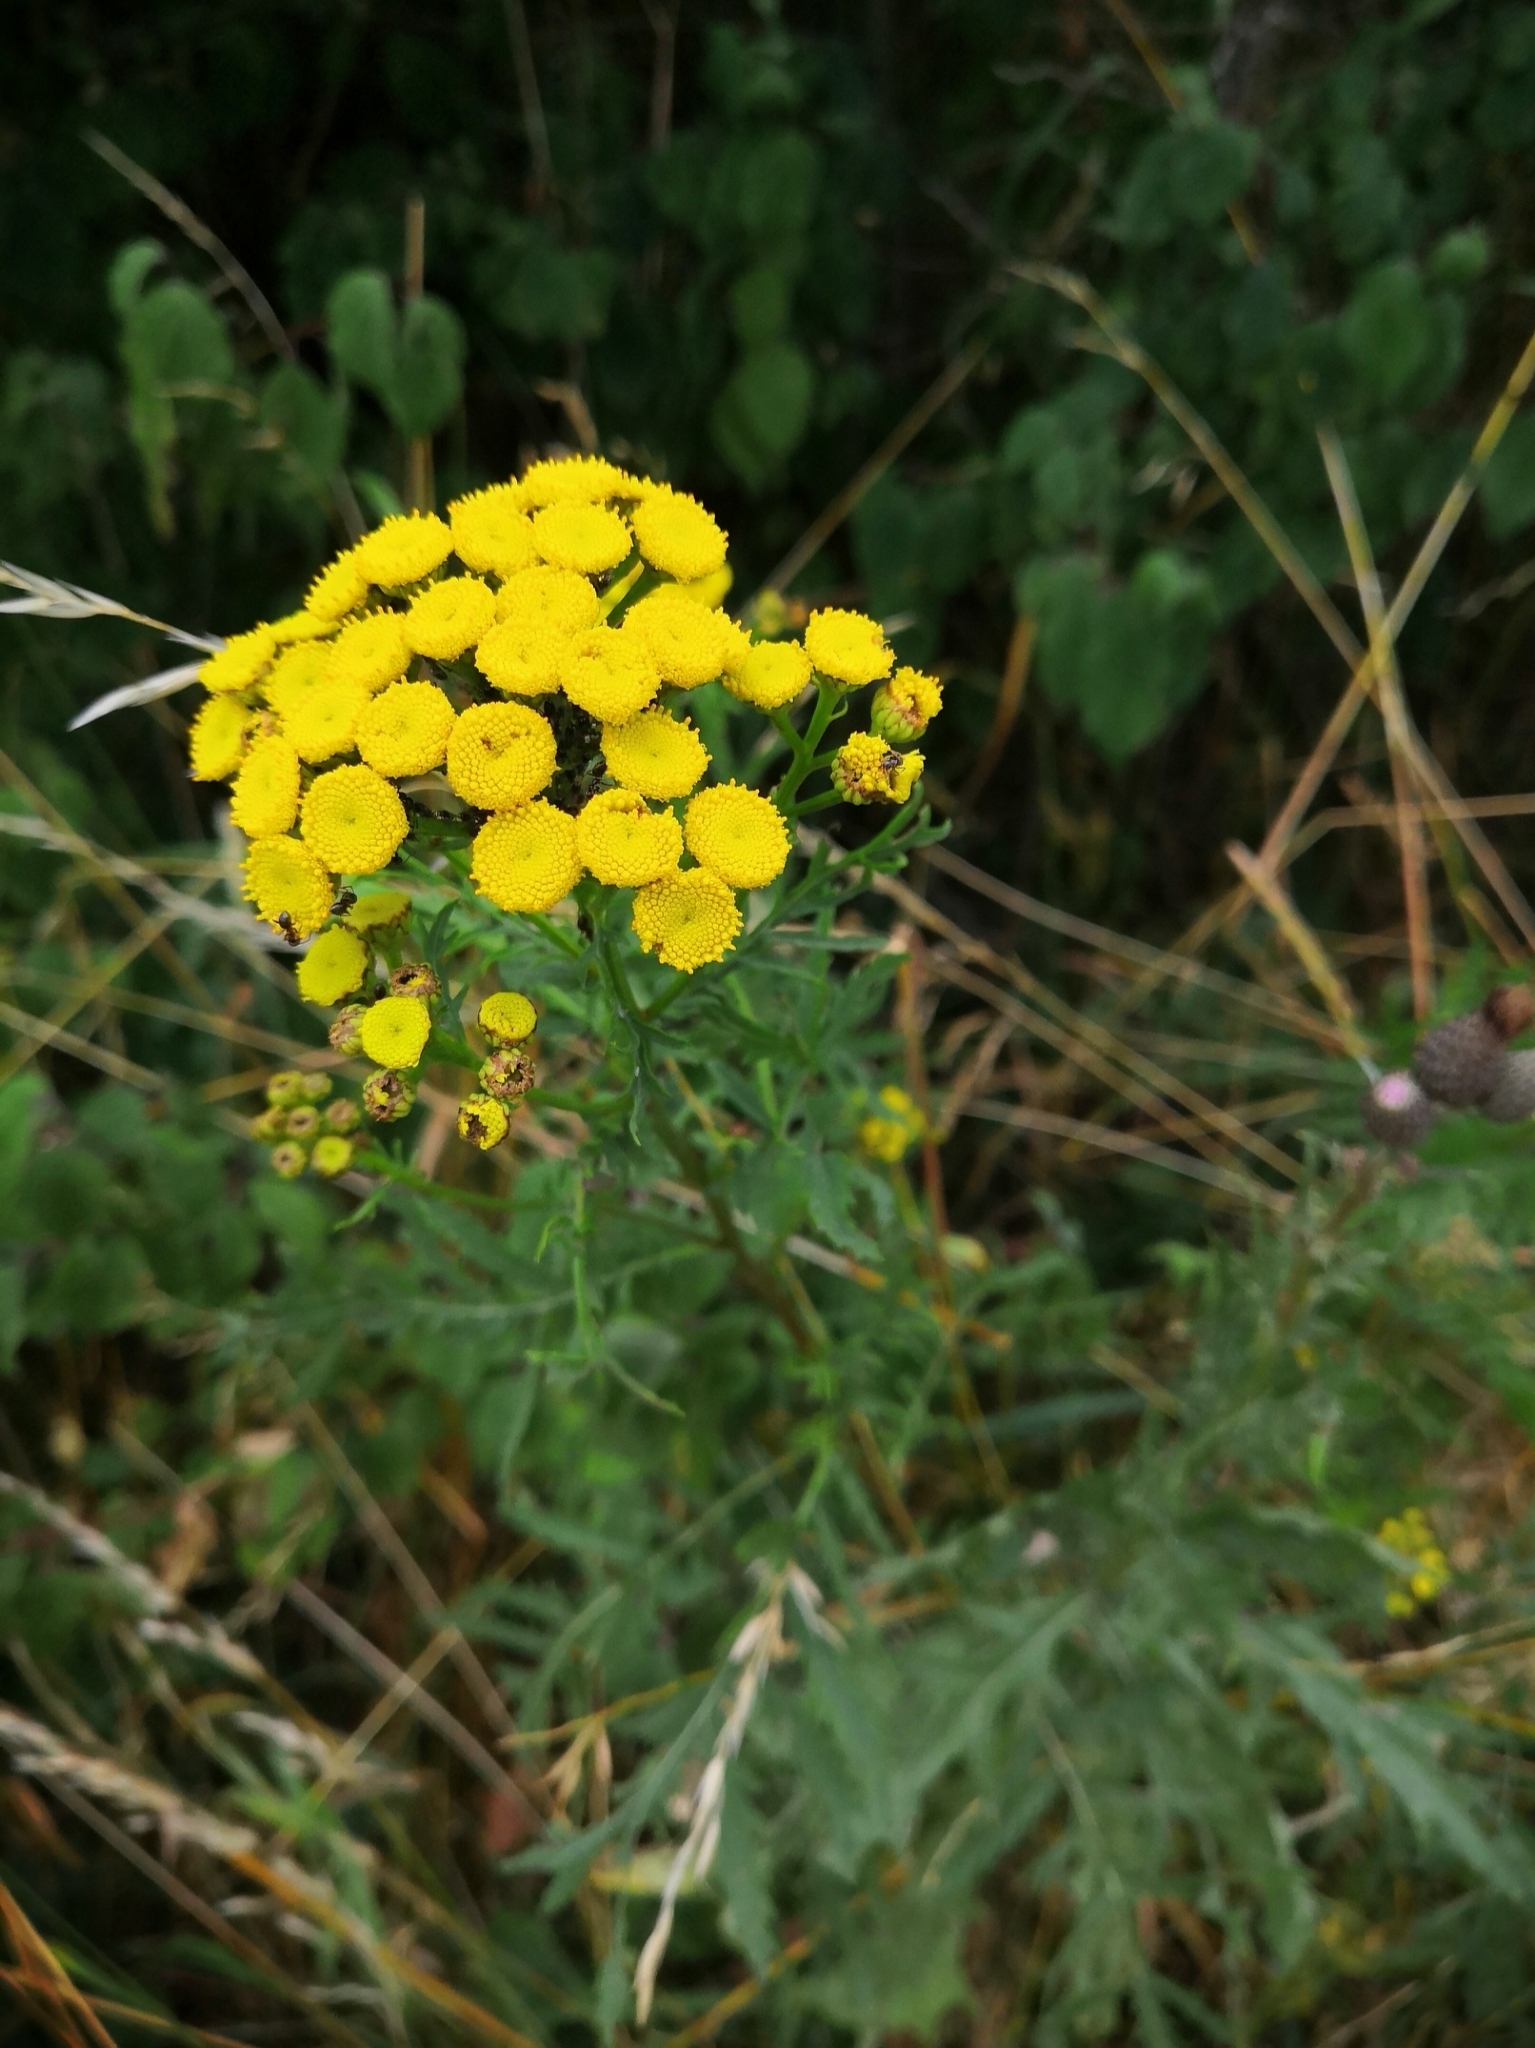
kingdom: Plantae
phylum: Tracheophyta
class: Magnoliopsida
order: Asterales
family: Asteraceae
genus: Tanacetum
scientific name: Tanacetum vulgare
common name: Common tansy
